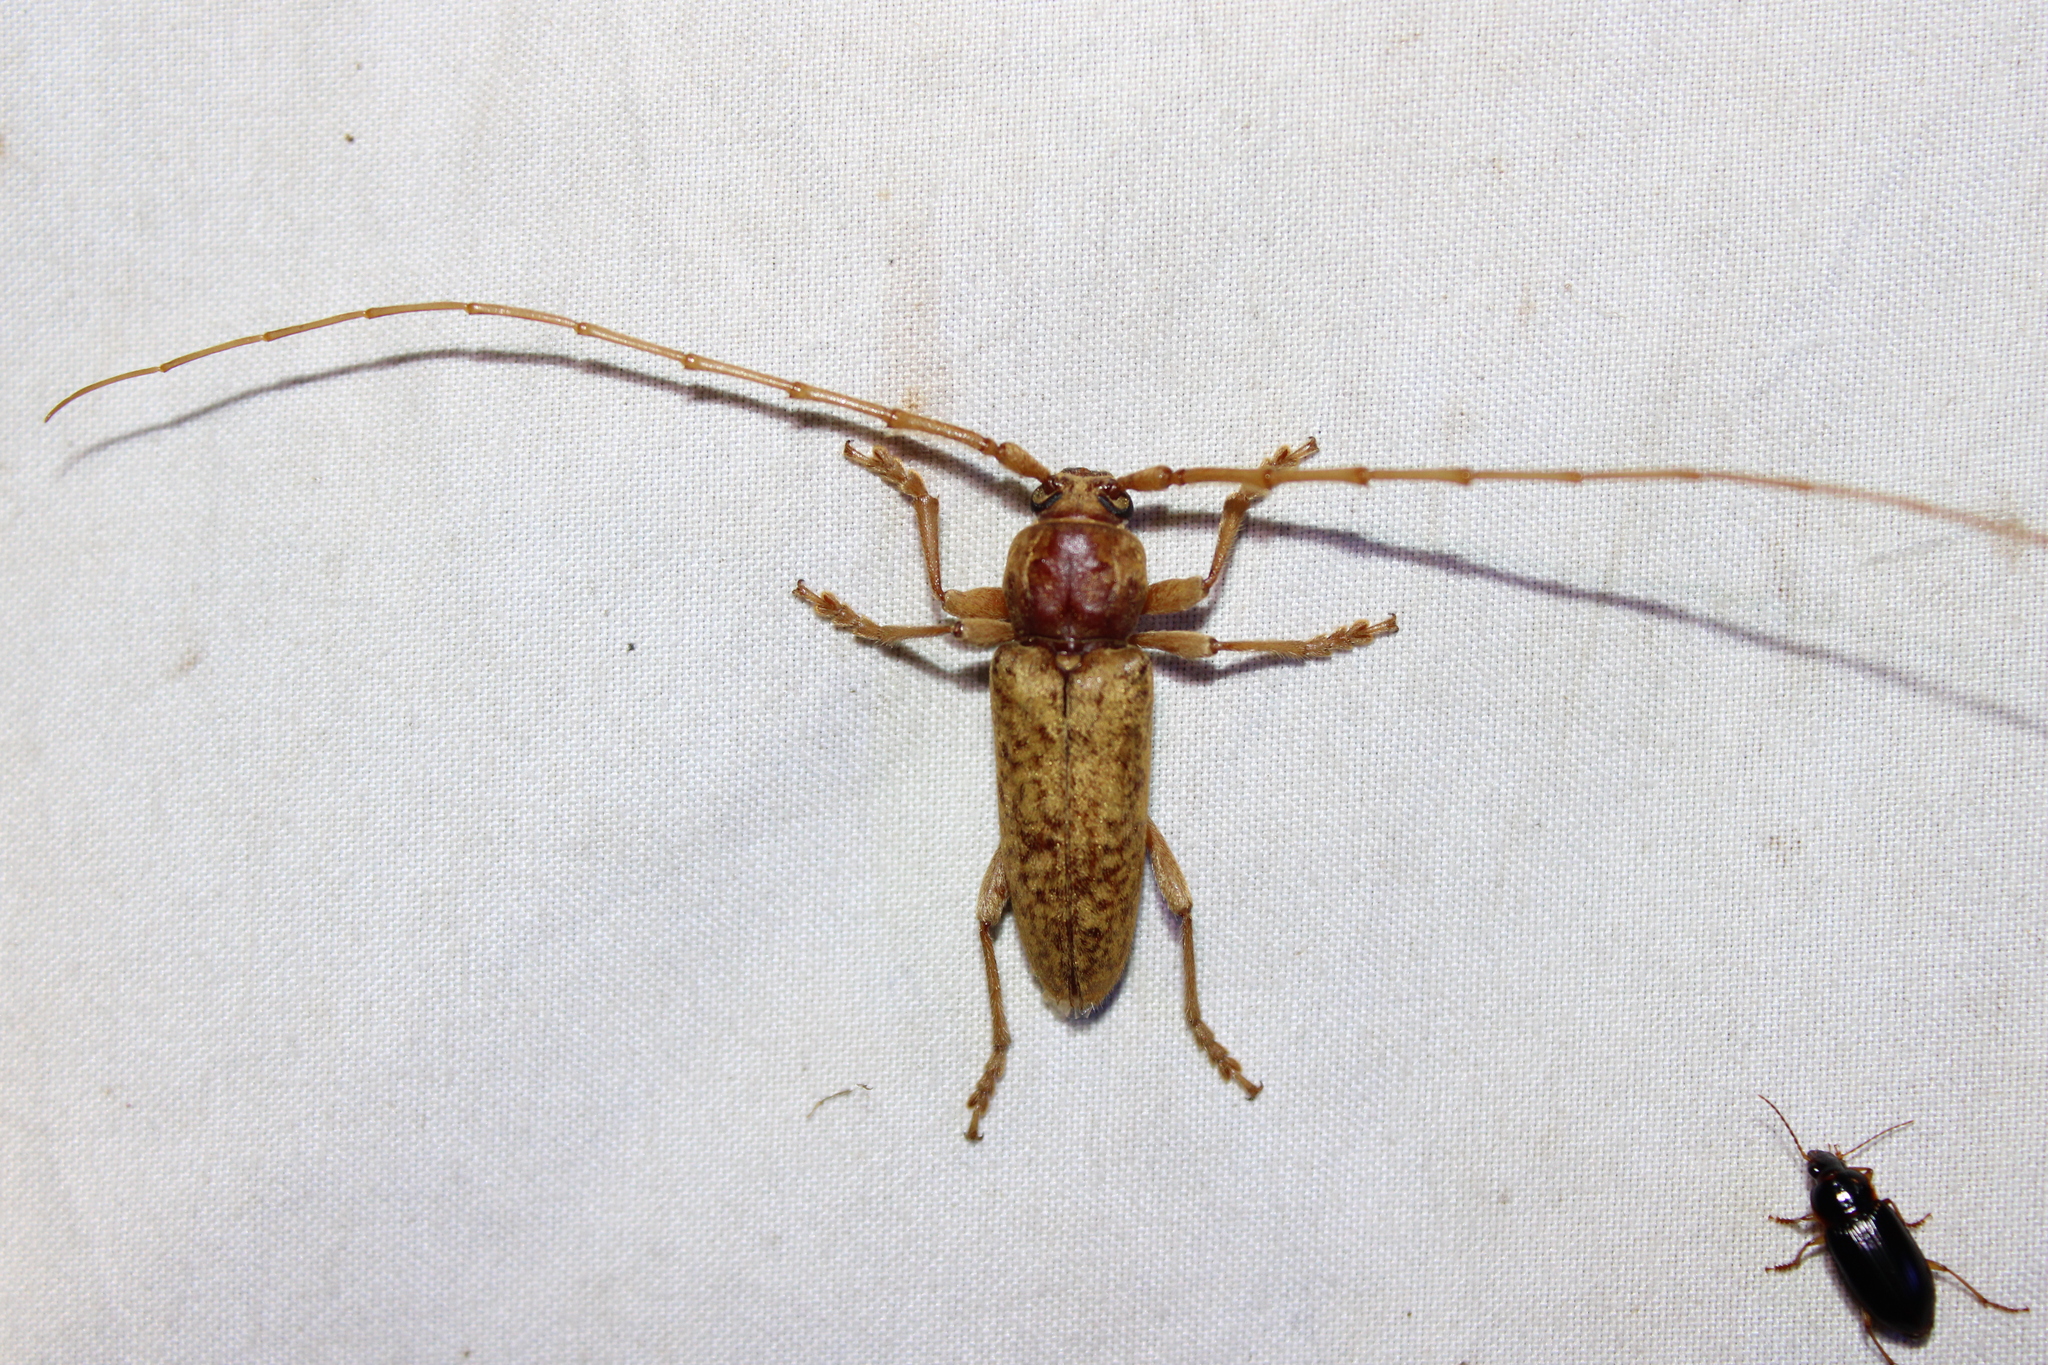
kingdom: Animalia
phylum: Arthropoda
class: Insecta
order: Coleoptera
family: Cerambycidae
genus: Enaphalodes
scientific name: Enaphalodes rufulus
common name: Red oak borer
